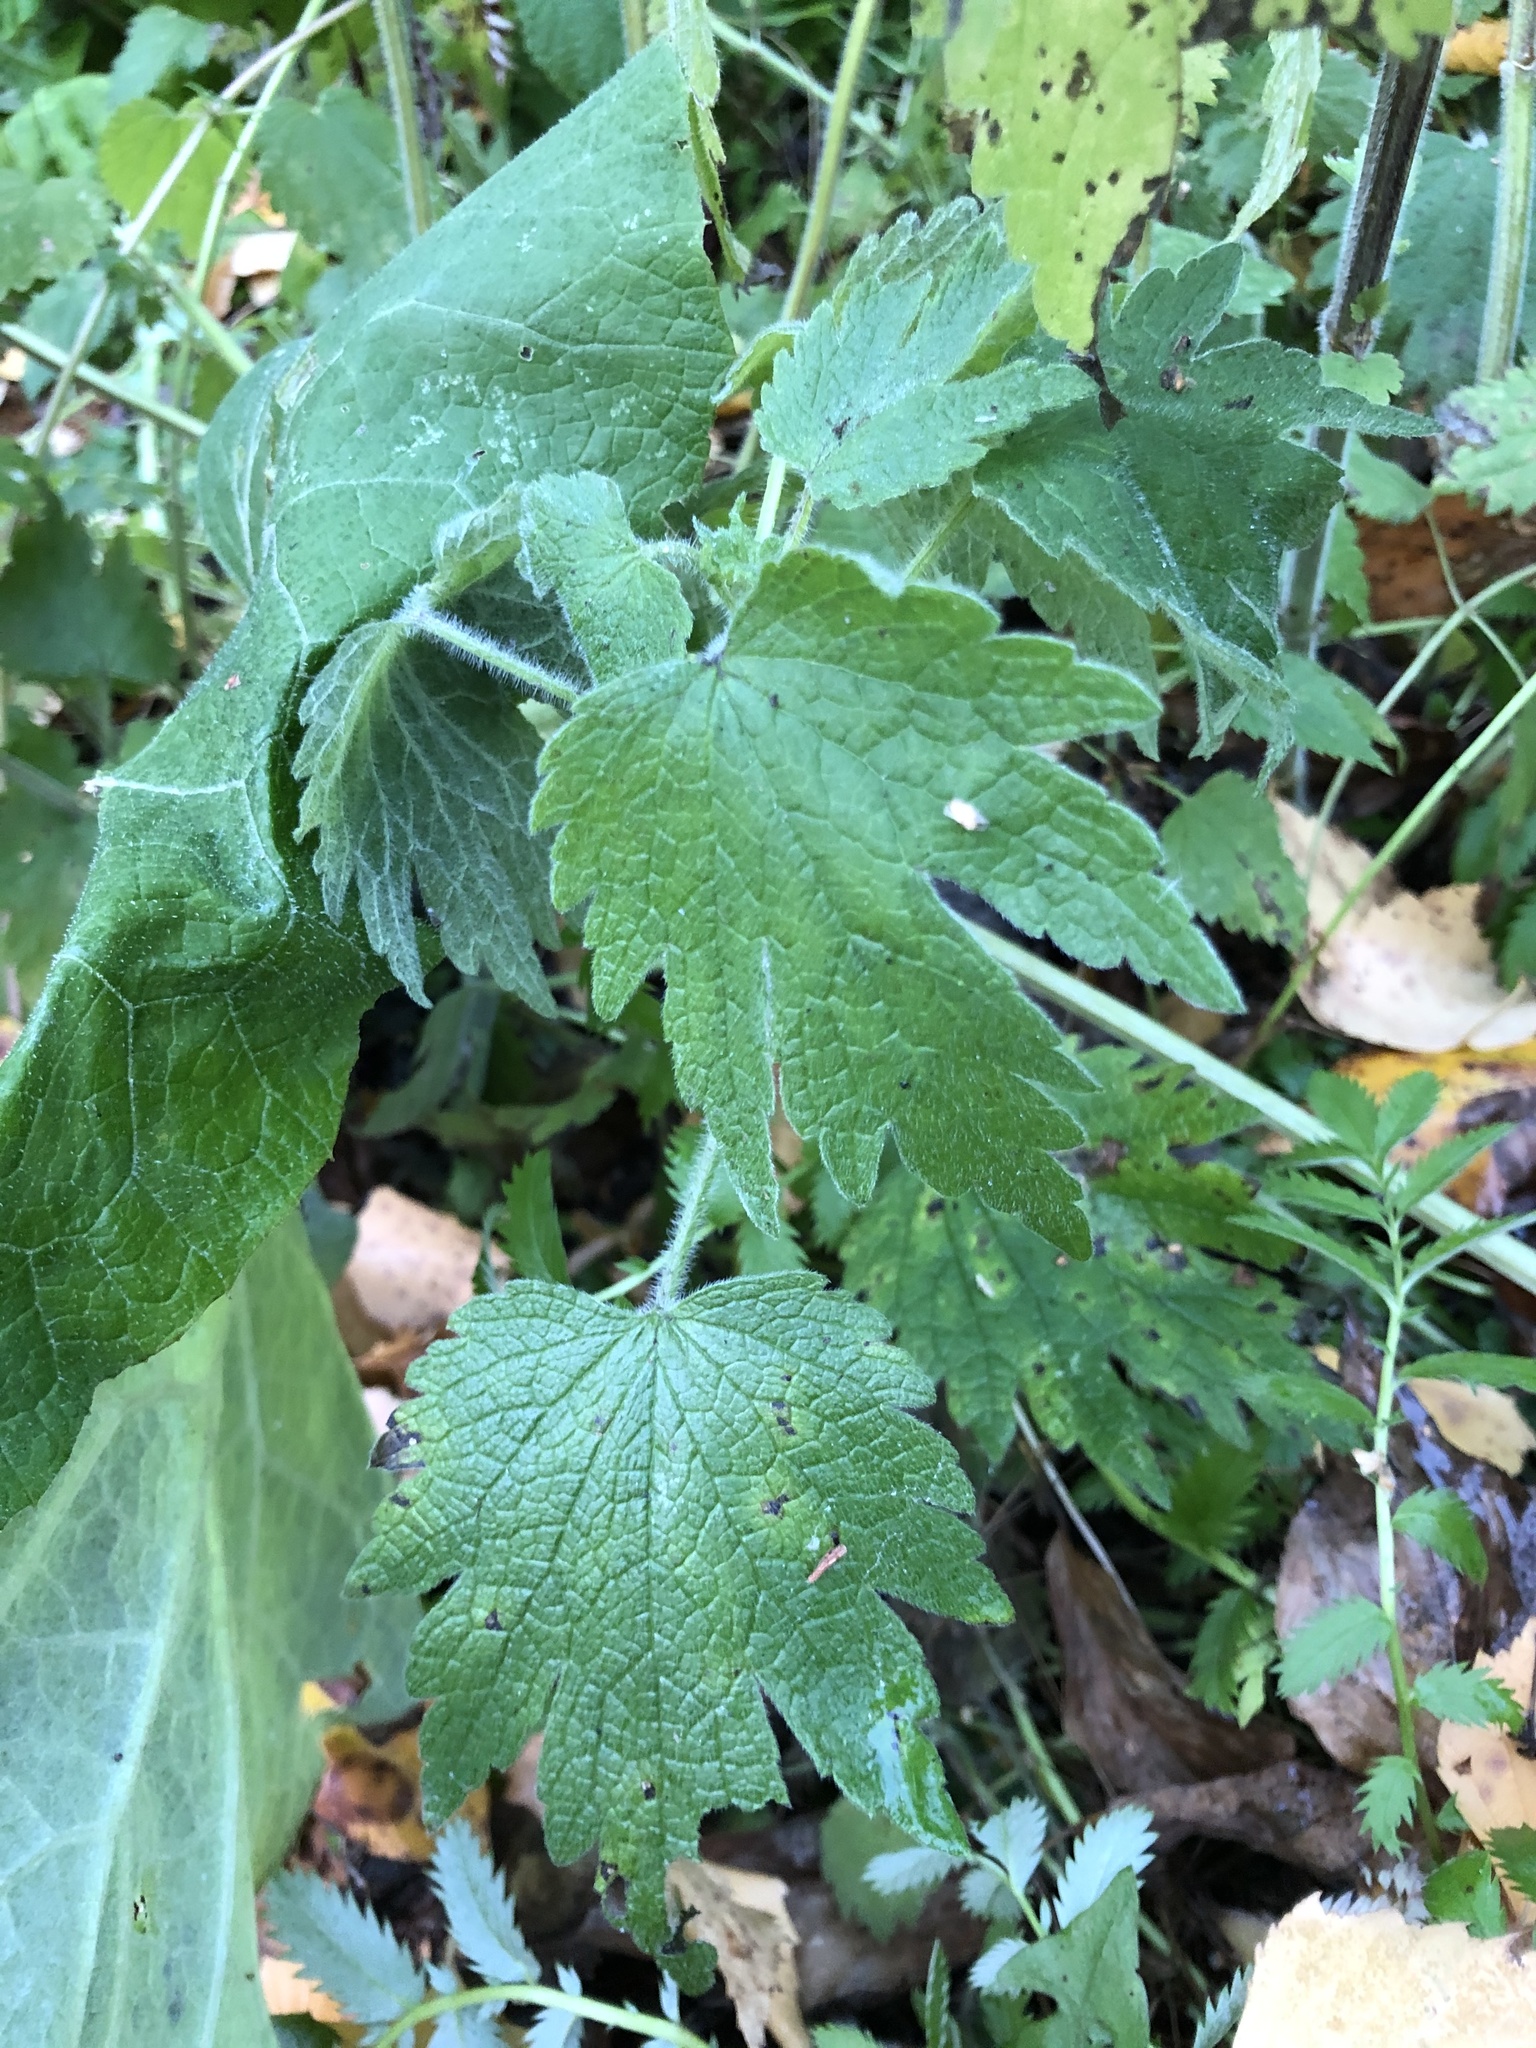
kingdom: Plantae
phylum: Tracheophyta
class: Magnoliopsida
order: Lamiales
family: Lamiaceae
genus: Leonurus
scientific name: Leonurus quinquelobatus
